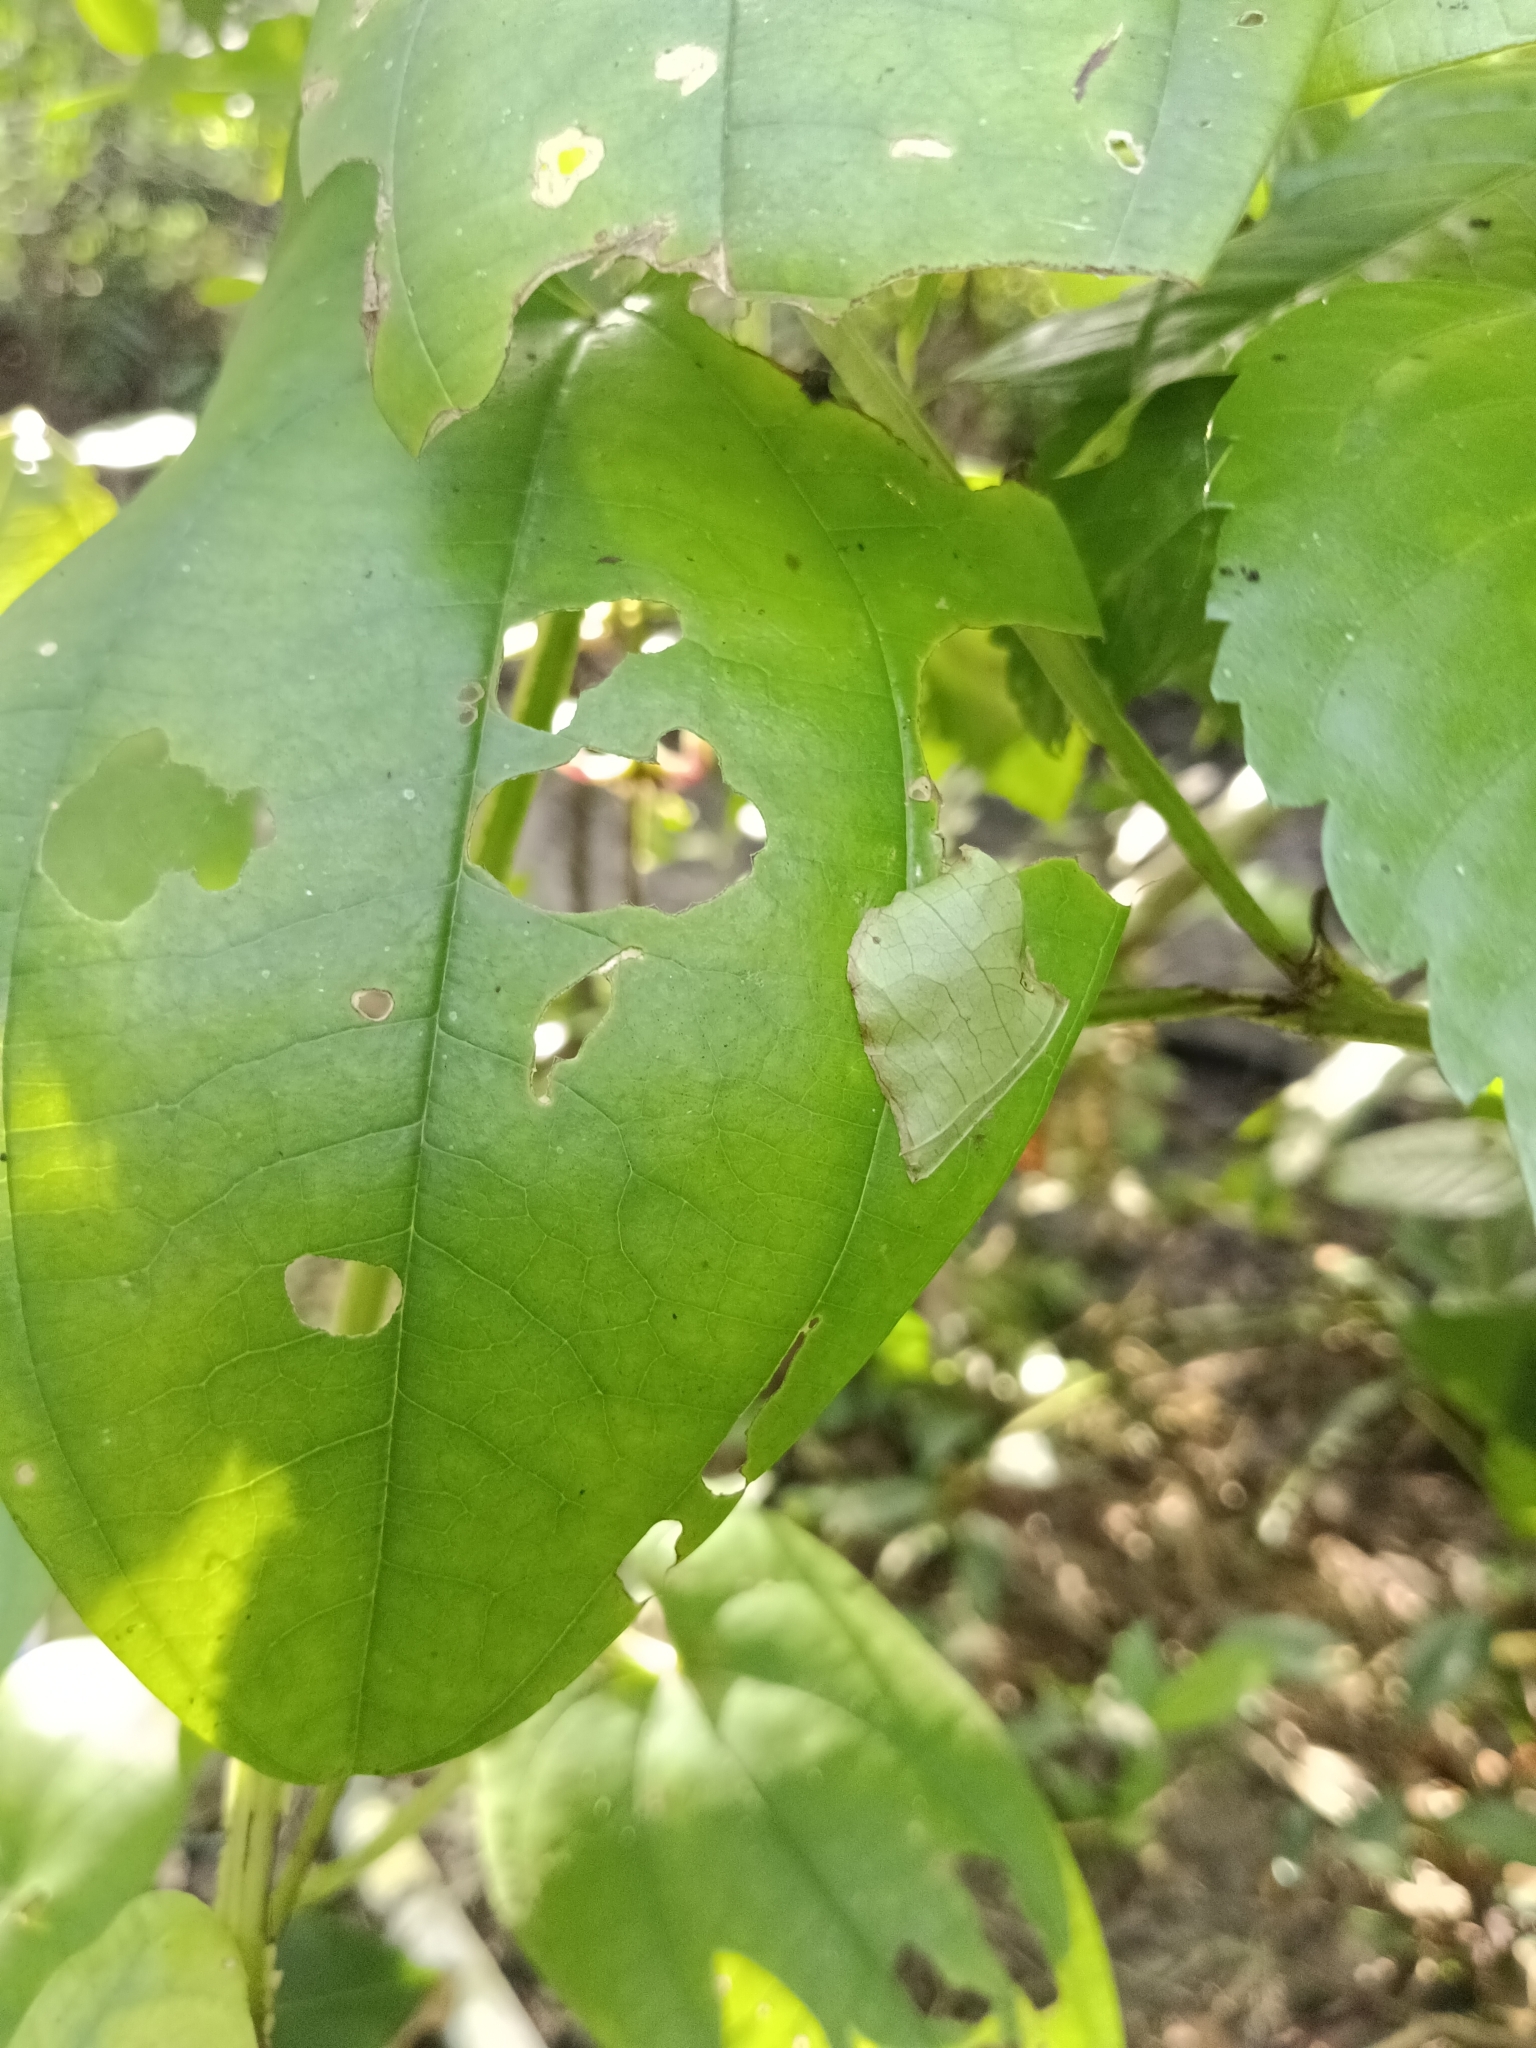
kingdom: Animalia
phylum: Arthropoda
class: Insecta
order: Lepidoptera
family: Hesperiidae
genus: Tagiades
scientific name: Tagiades litigiosa
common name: Water snow flat
